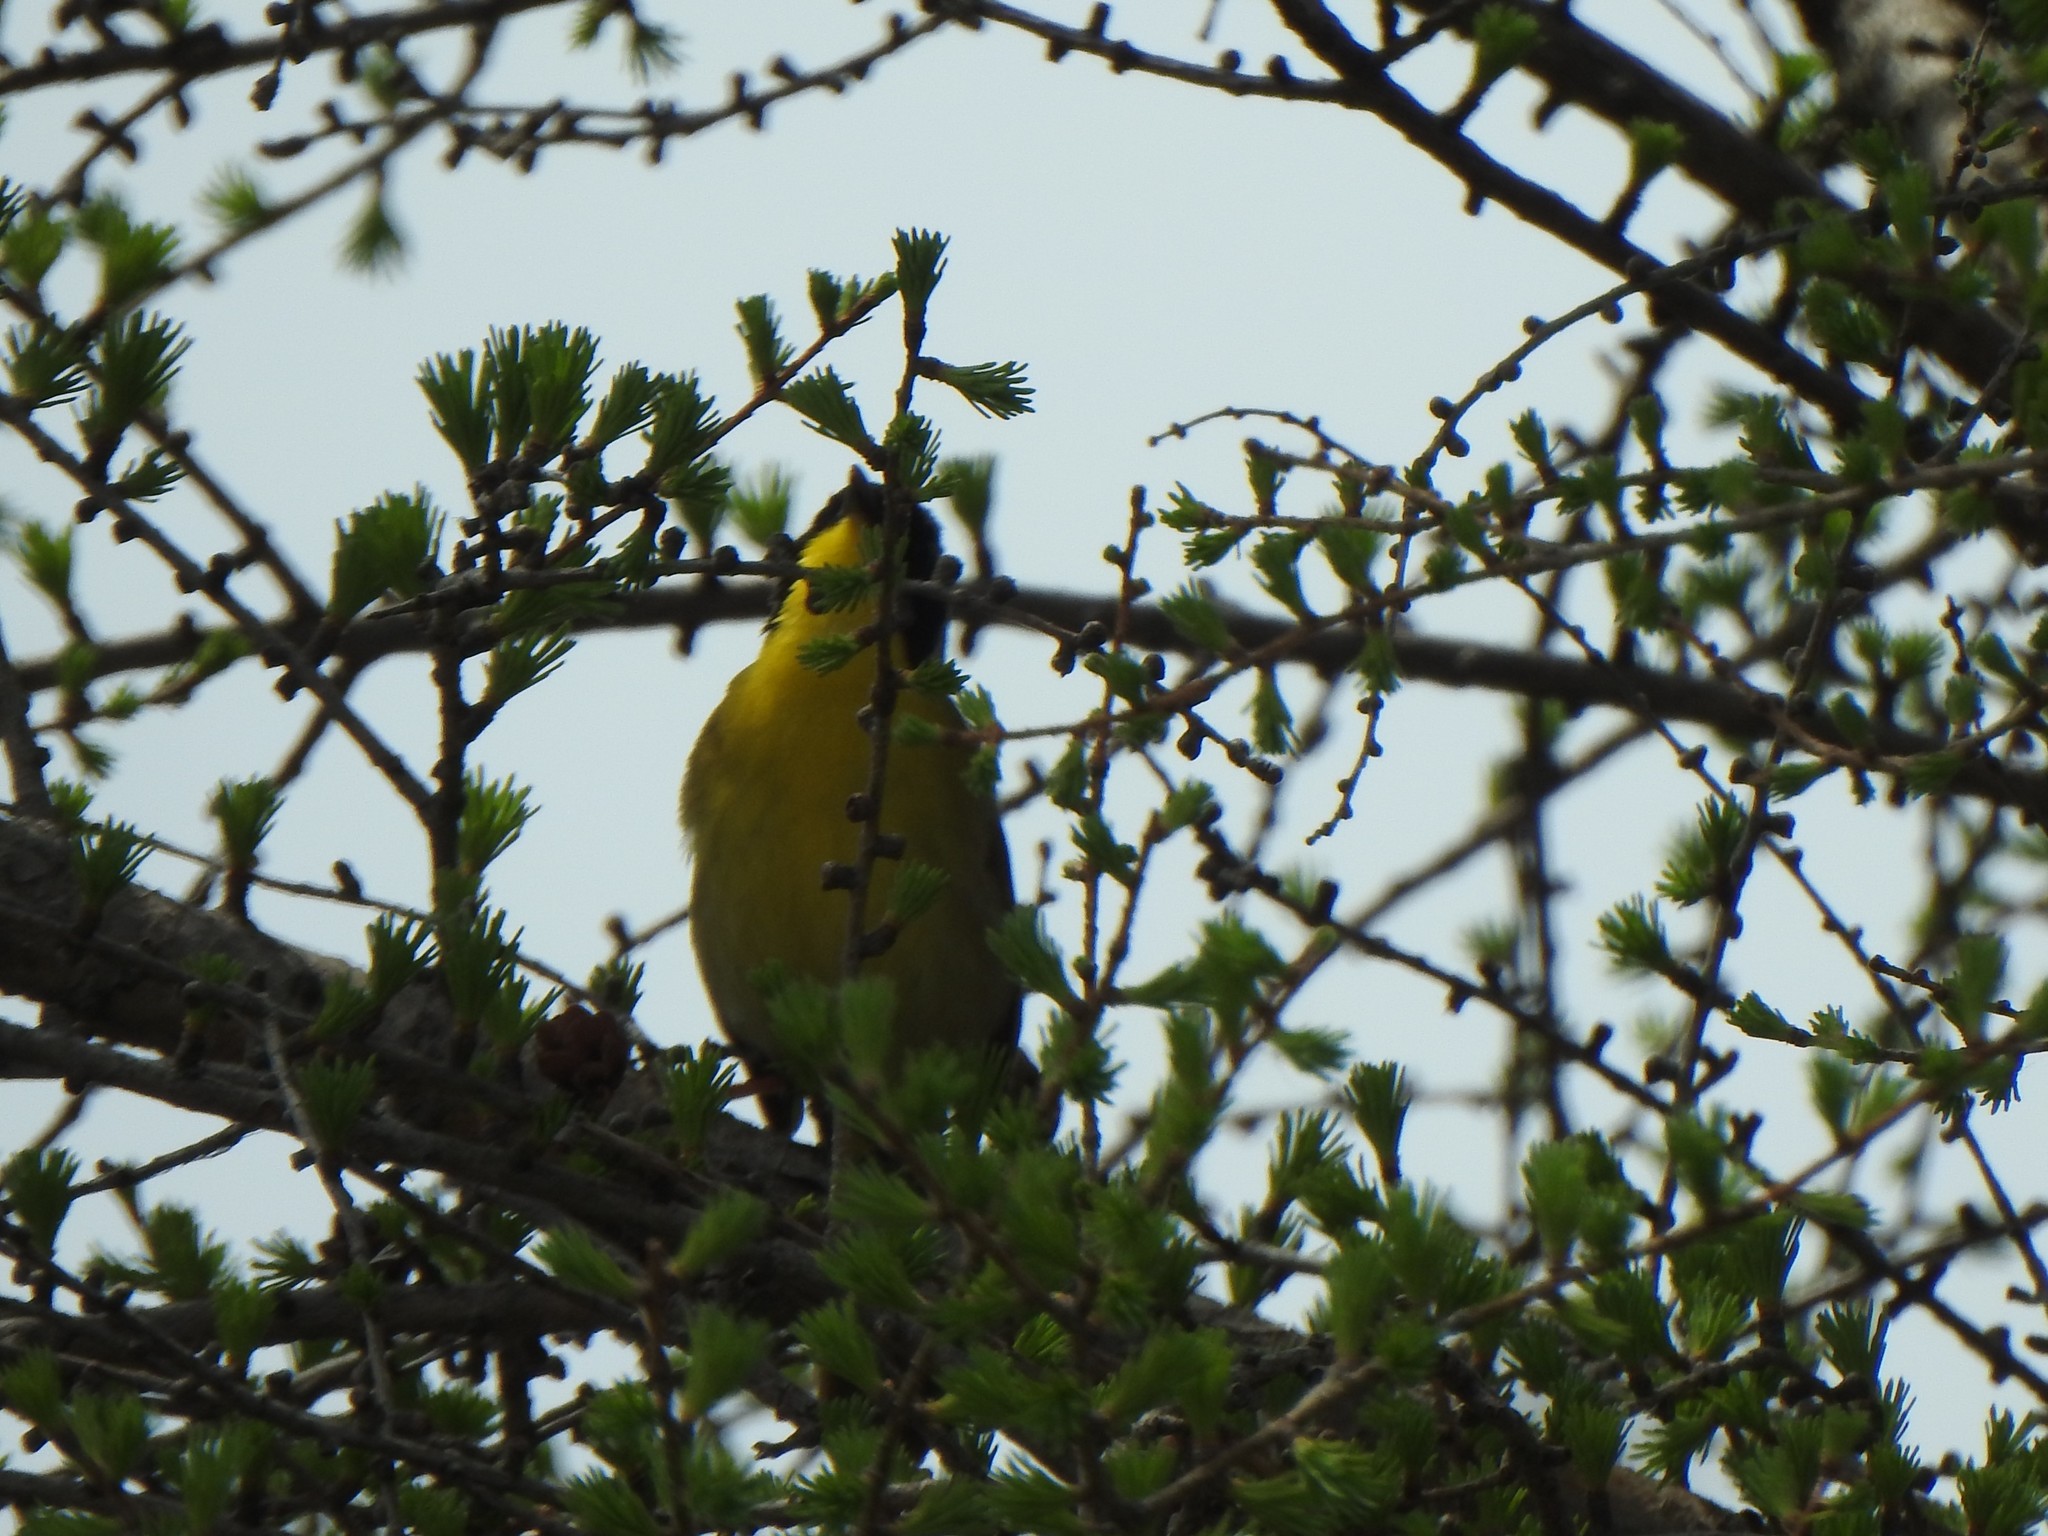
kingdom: Animalia
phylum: Chordata
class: Aves
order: Passeriformes
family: Parulidae
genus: Geothlypis
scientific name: Geothlypis trichas
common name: Common yellowthroat
